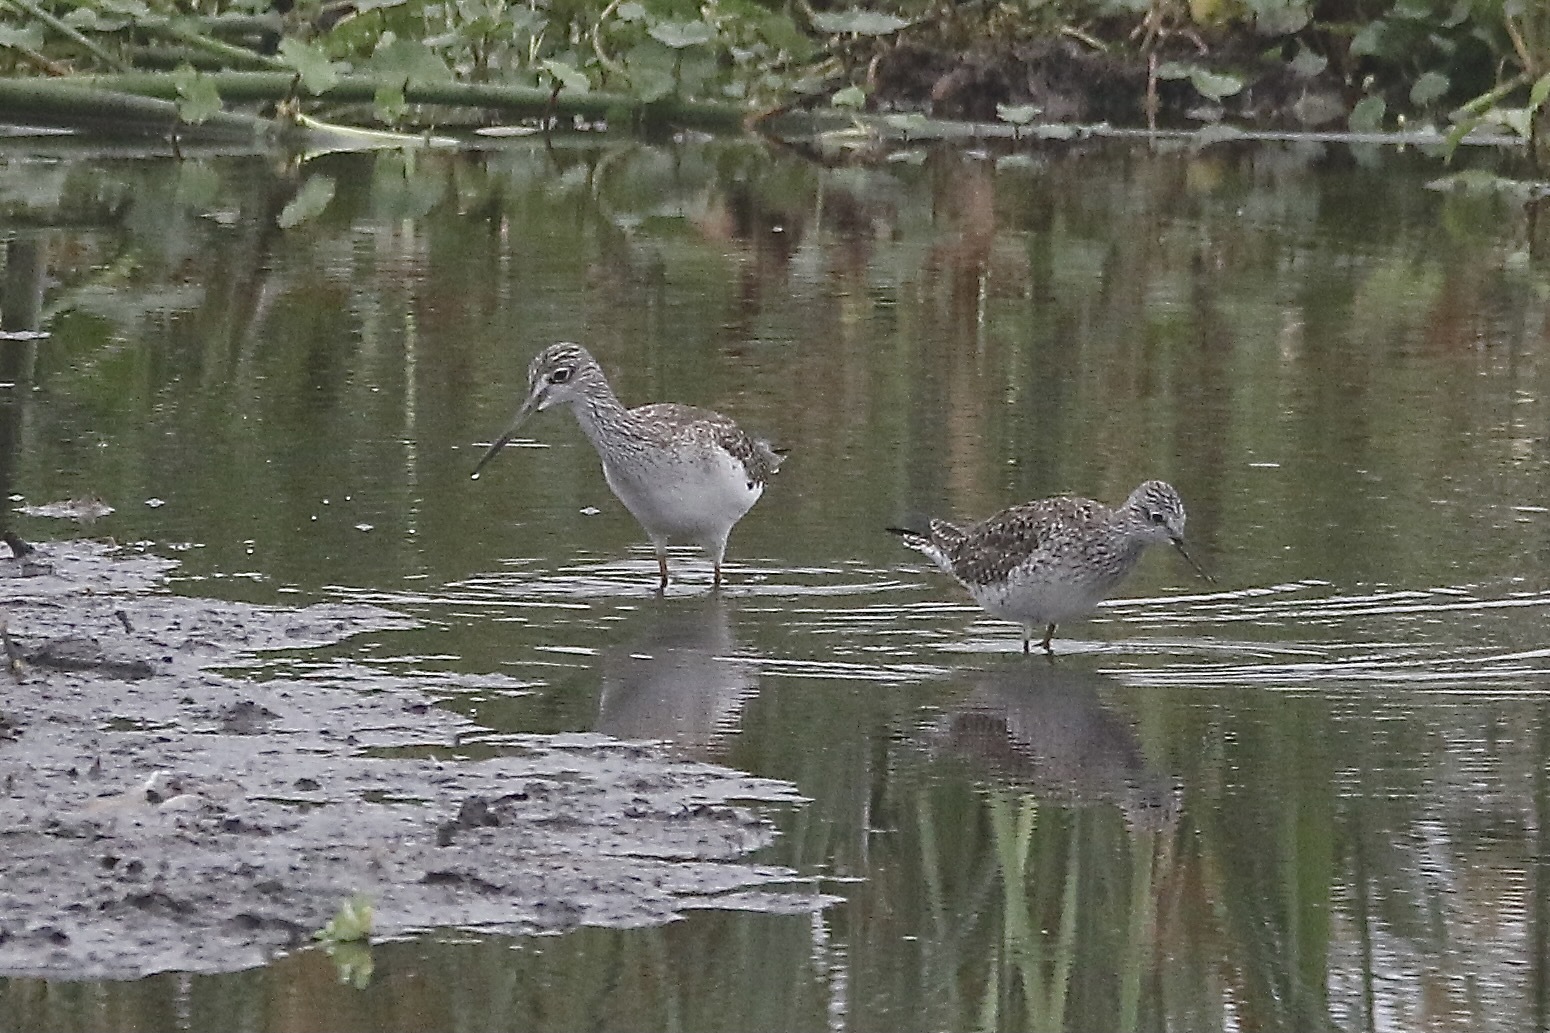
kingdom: Animalia
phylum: Chordata
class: Aves
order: Charadriiformes
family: Scolopacidae
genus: Tringa
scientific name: Tringa flavipes
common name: Lesser yellowlegs
